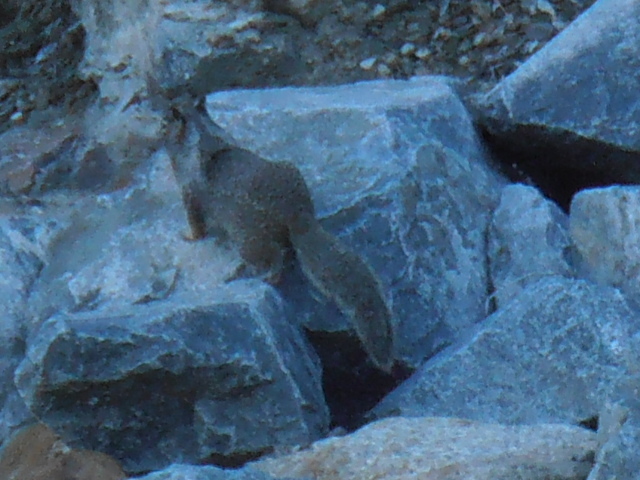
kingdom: Animalia
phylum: Chordata
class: Mammalia
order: Rodentia
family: Sciuridae
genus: Otospermophilus
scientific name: Otospermophilus beecheyi
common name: California ground squirrel
